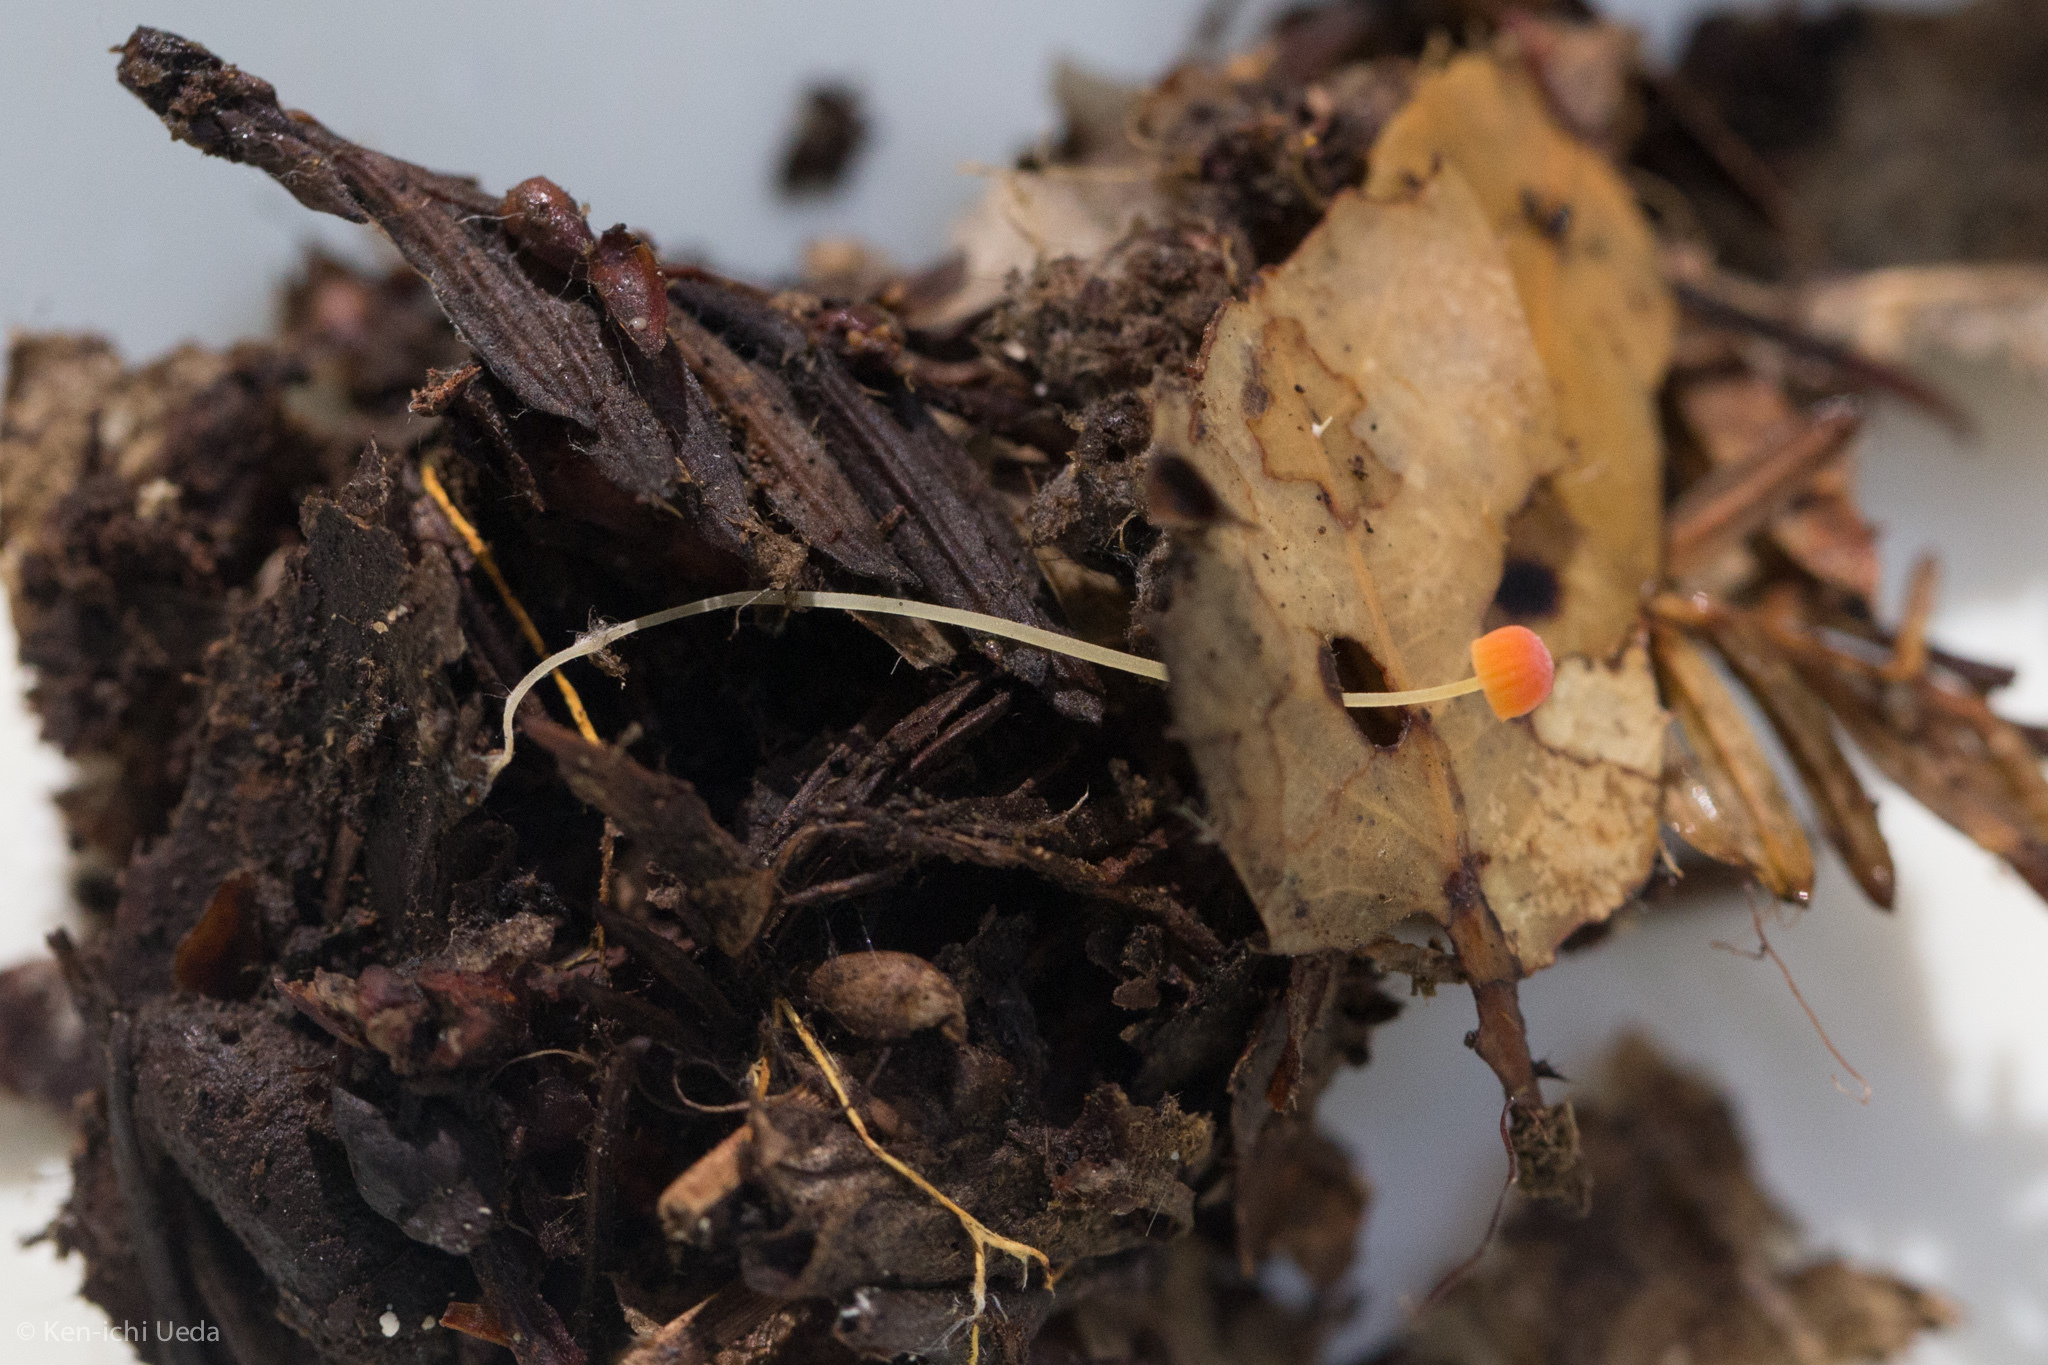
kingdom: Fungi
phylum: Basidiomycota
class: Agaricomycetes
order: Agaricales
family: Mycenaceae
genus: Mycena
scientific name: Mycena acicula
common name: Orange bonnet
